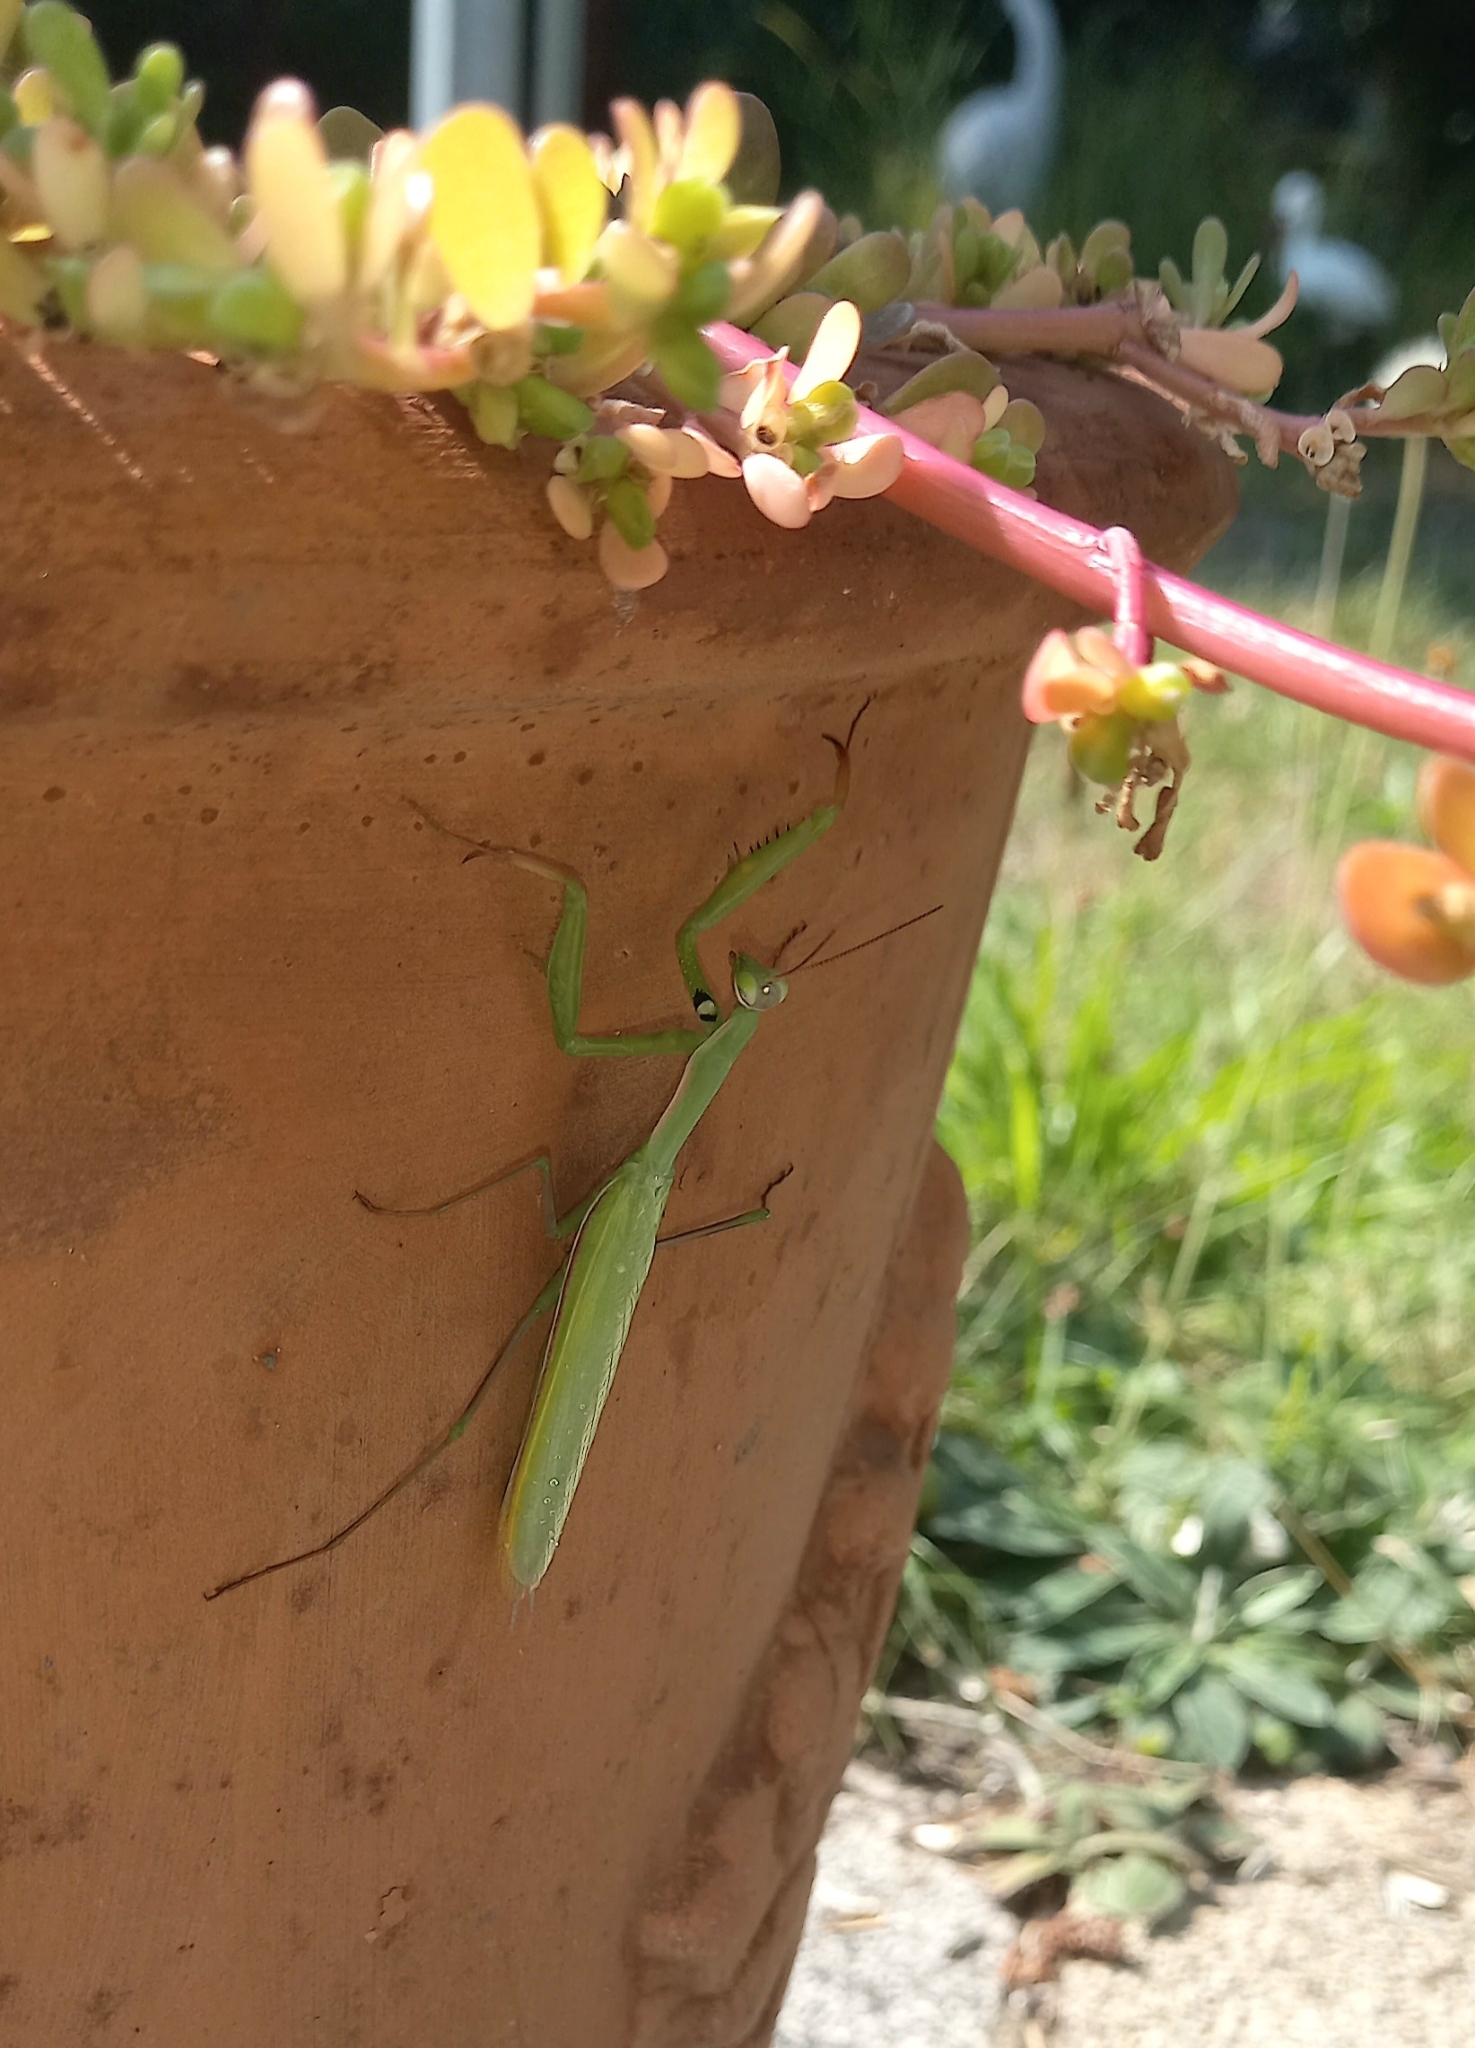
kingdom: Animalia
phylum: Arthropoda
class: Insecta
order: Mantodea
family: Mantidae
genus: Mantis
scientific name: Mantis religiosa
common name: Praying mantis
